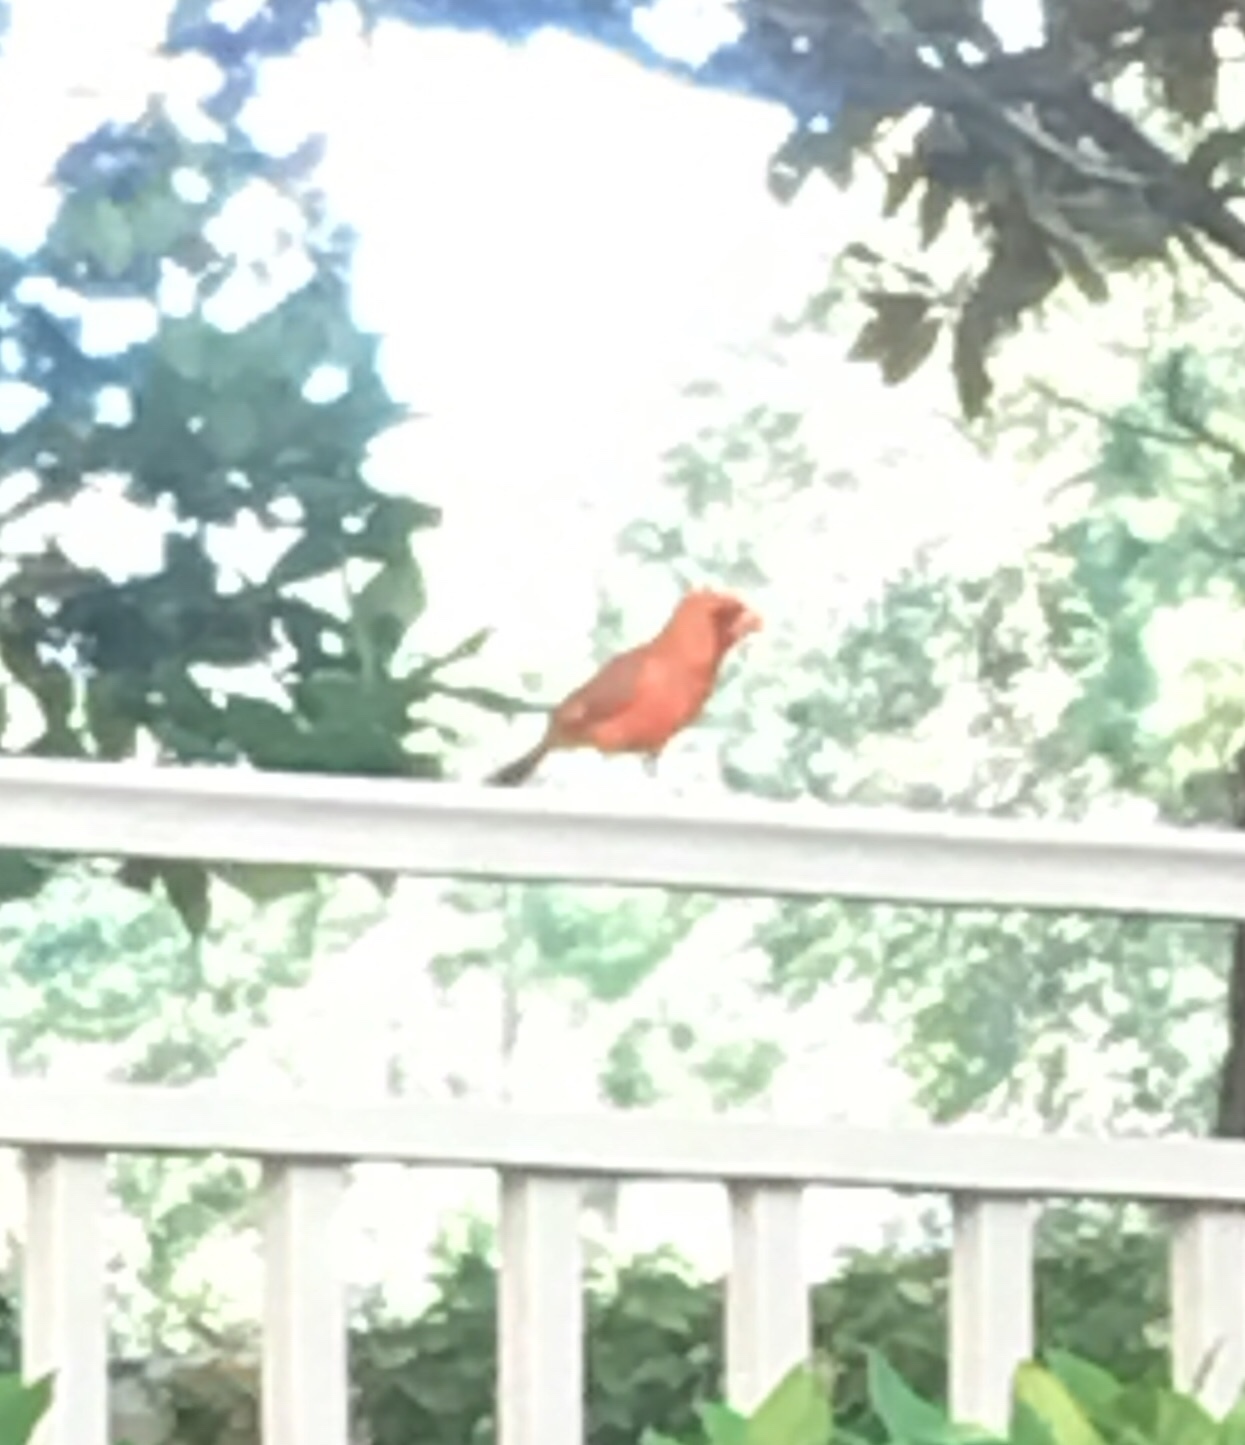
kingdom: Animalia
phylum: Chordata
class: Aves
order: Passeriformes
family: Cardinalidae
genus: Cardinalis
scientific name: Cardinalis cardinalis
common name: Northern cardinal
